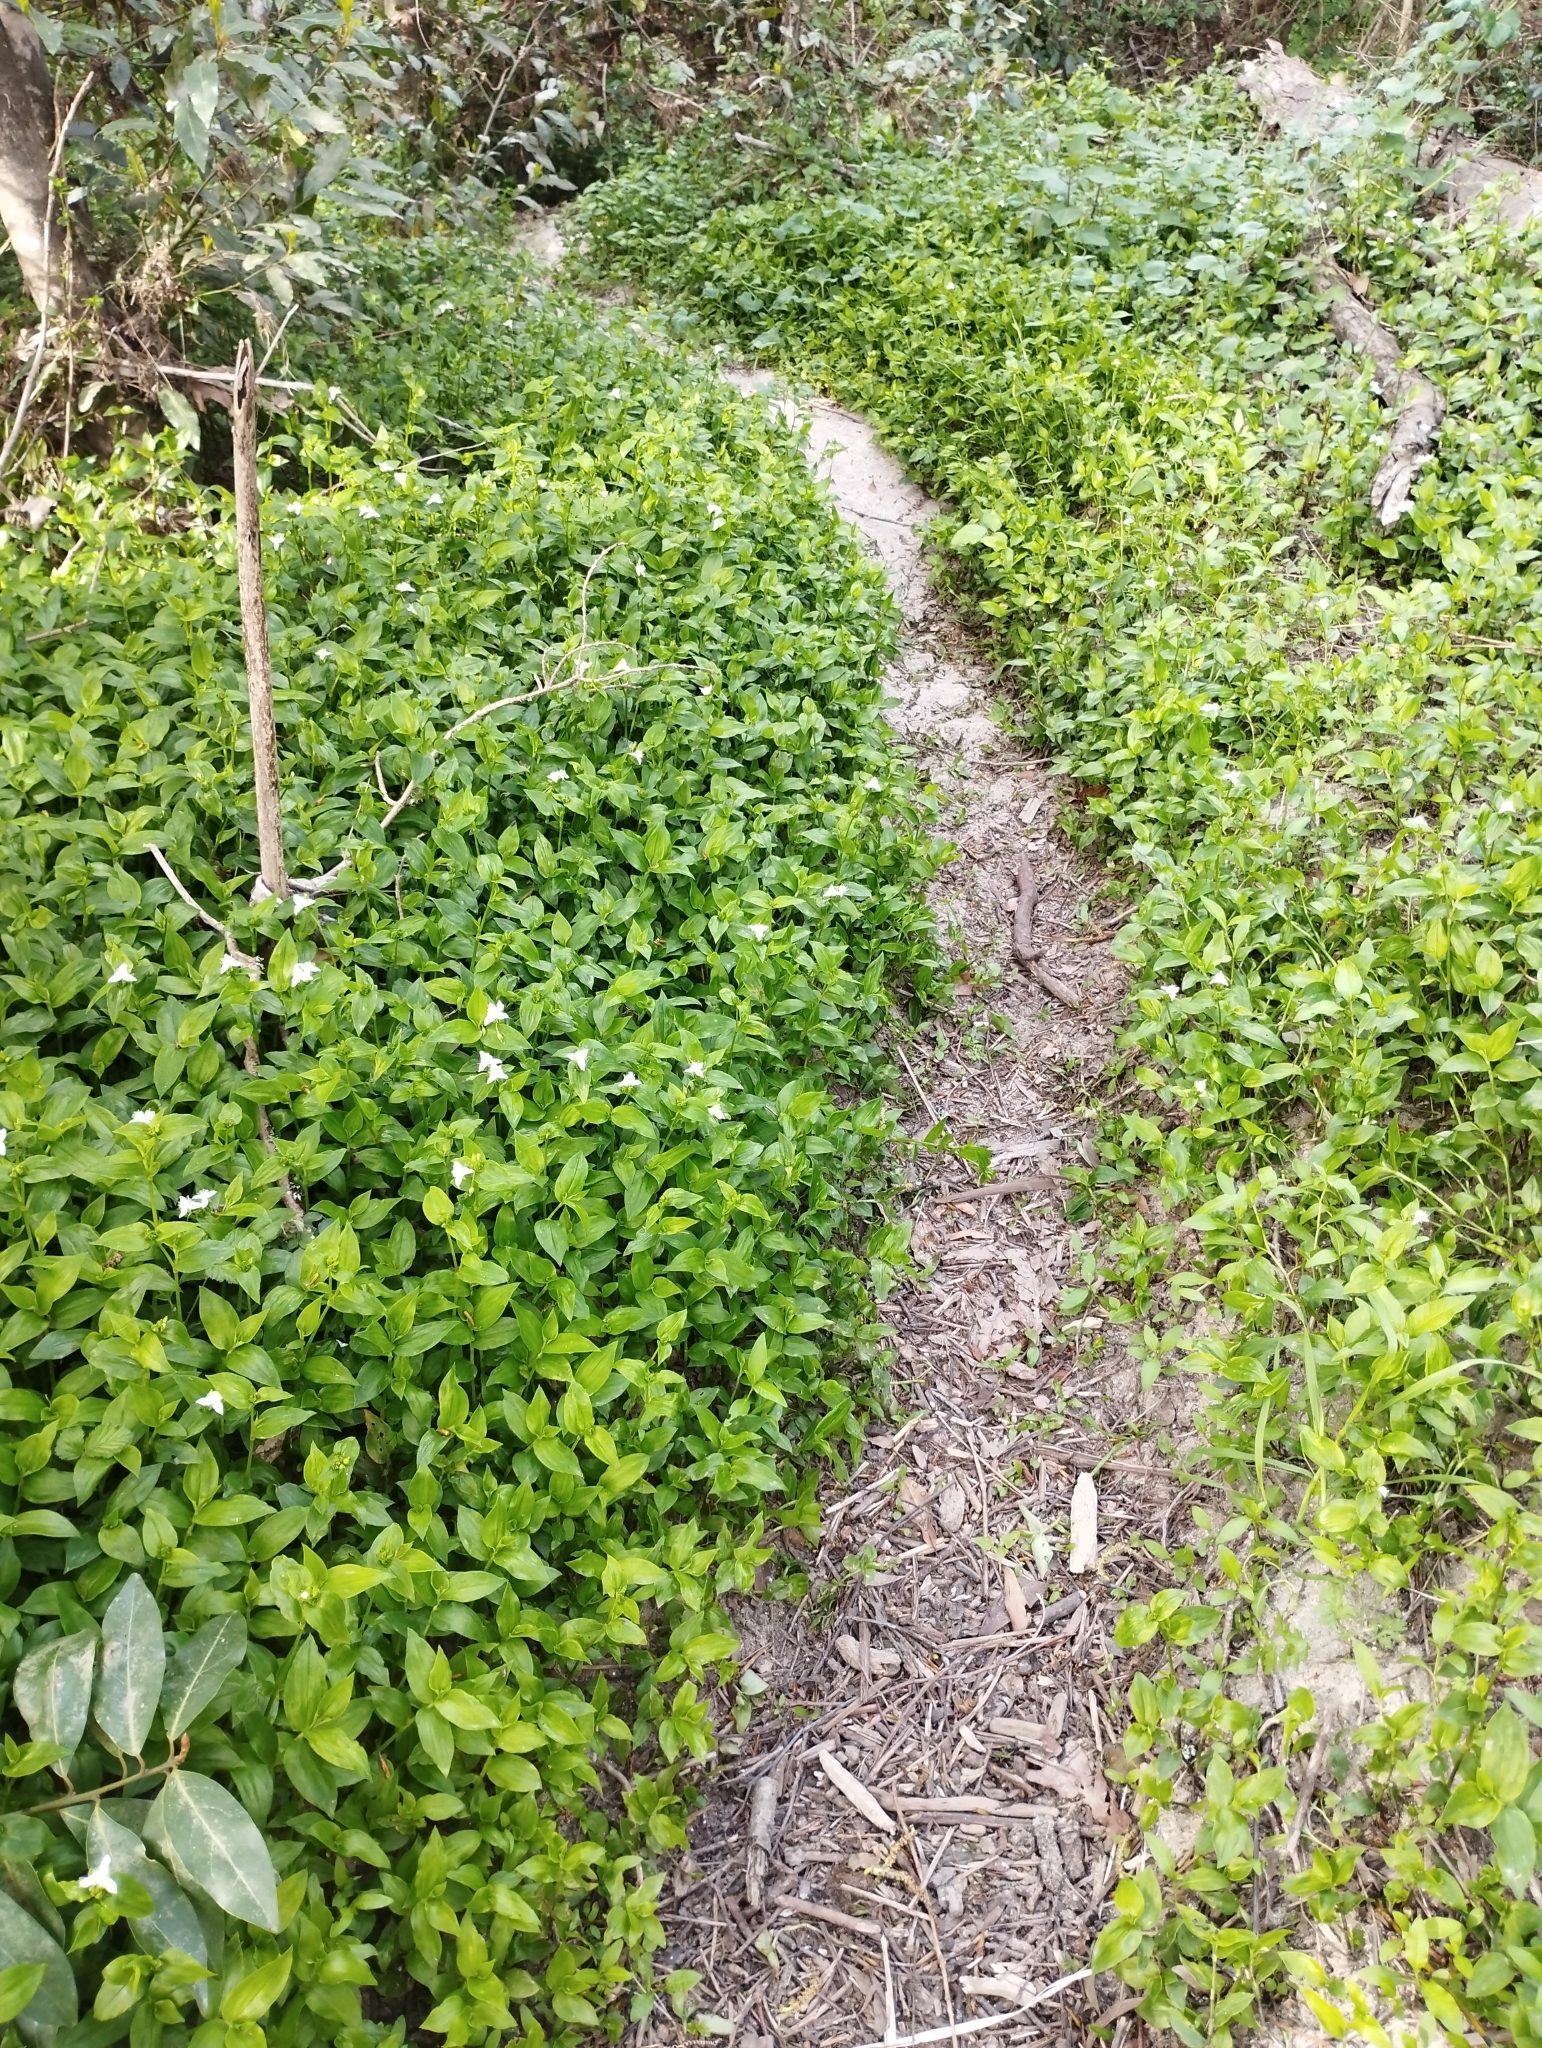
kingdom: Plantae
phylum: Tracheophyta
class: Liliopsida
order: Commelinales
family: Commelinaceae
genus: Tradescantia
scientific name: Tradescantia fluminensis
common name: Wandering-jew
